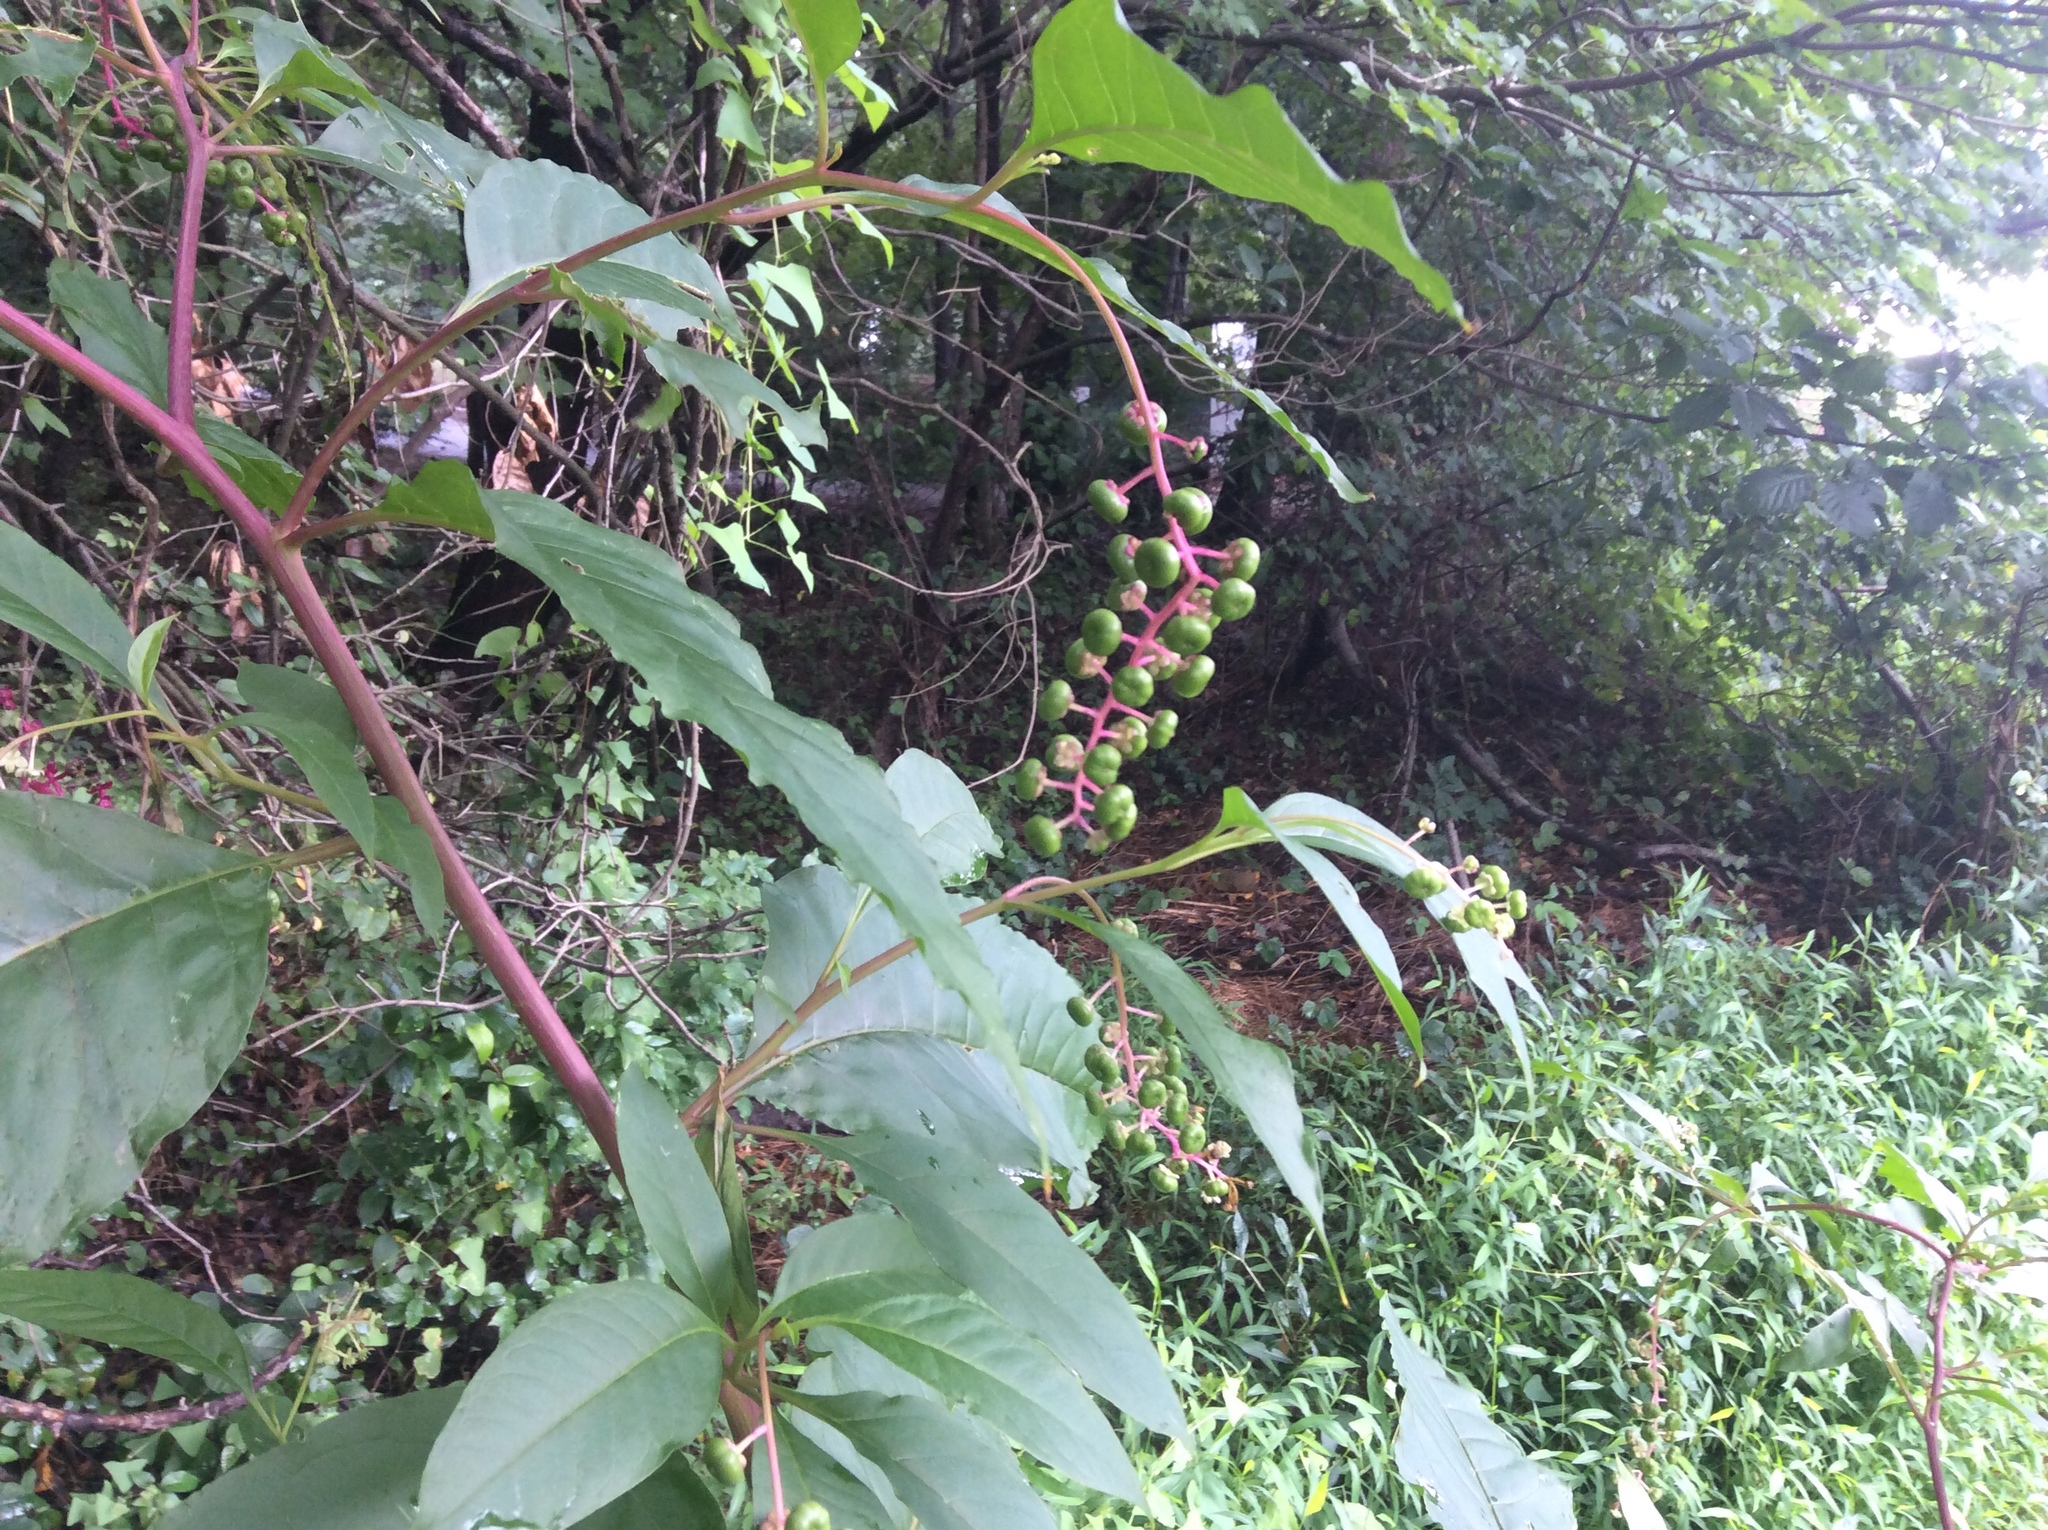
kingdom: Plantae
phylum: Tracheophyta
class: Magnoliopsida
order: Caryophyllales
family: Phytolaccaceae
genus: Phytolacca
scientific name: Phytolacca americana
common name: American pokeweed
